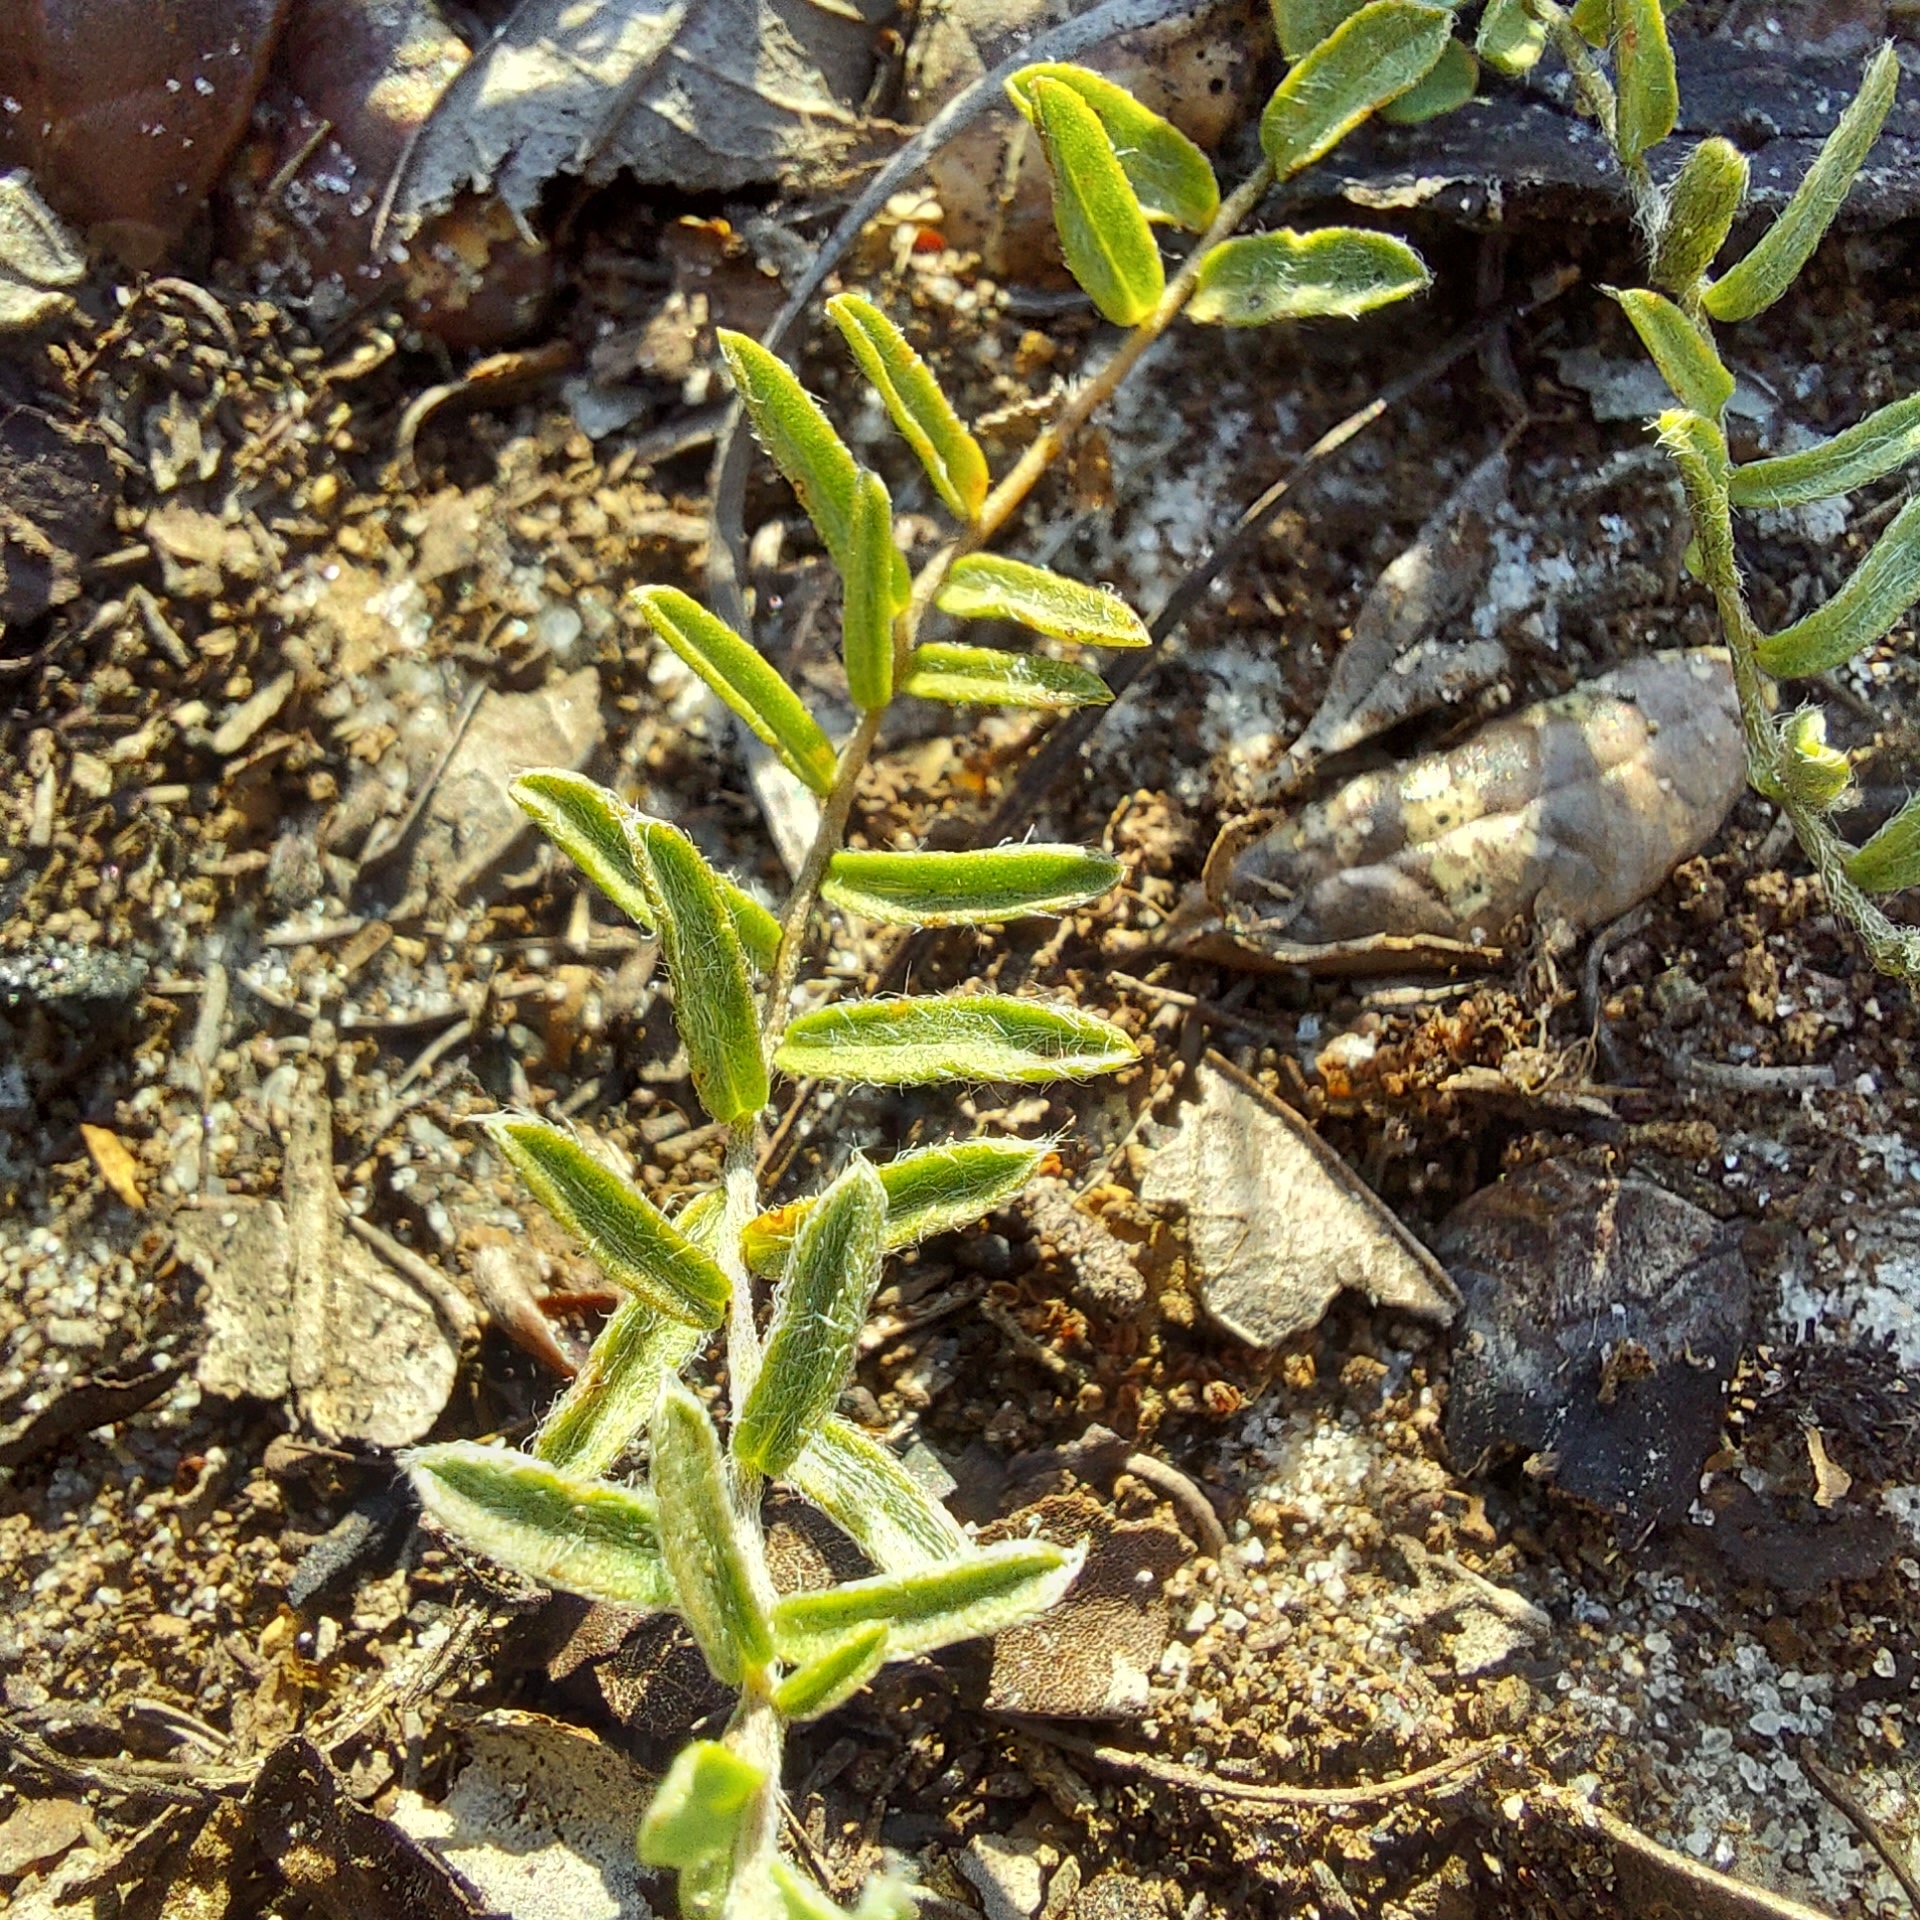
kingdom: Plantae
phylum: Tracheophyta
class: Magnoliopsida
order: Solanales
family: Convolvulaceae
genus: Stylisma
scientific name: Stylisma abdita
